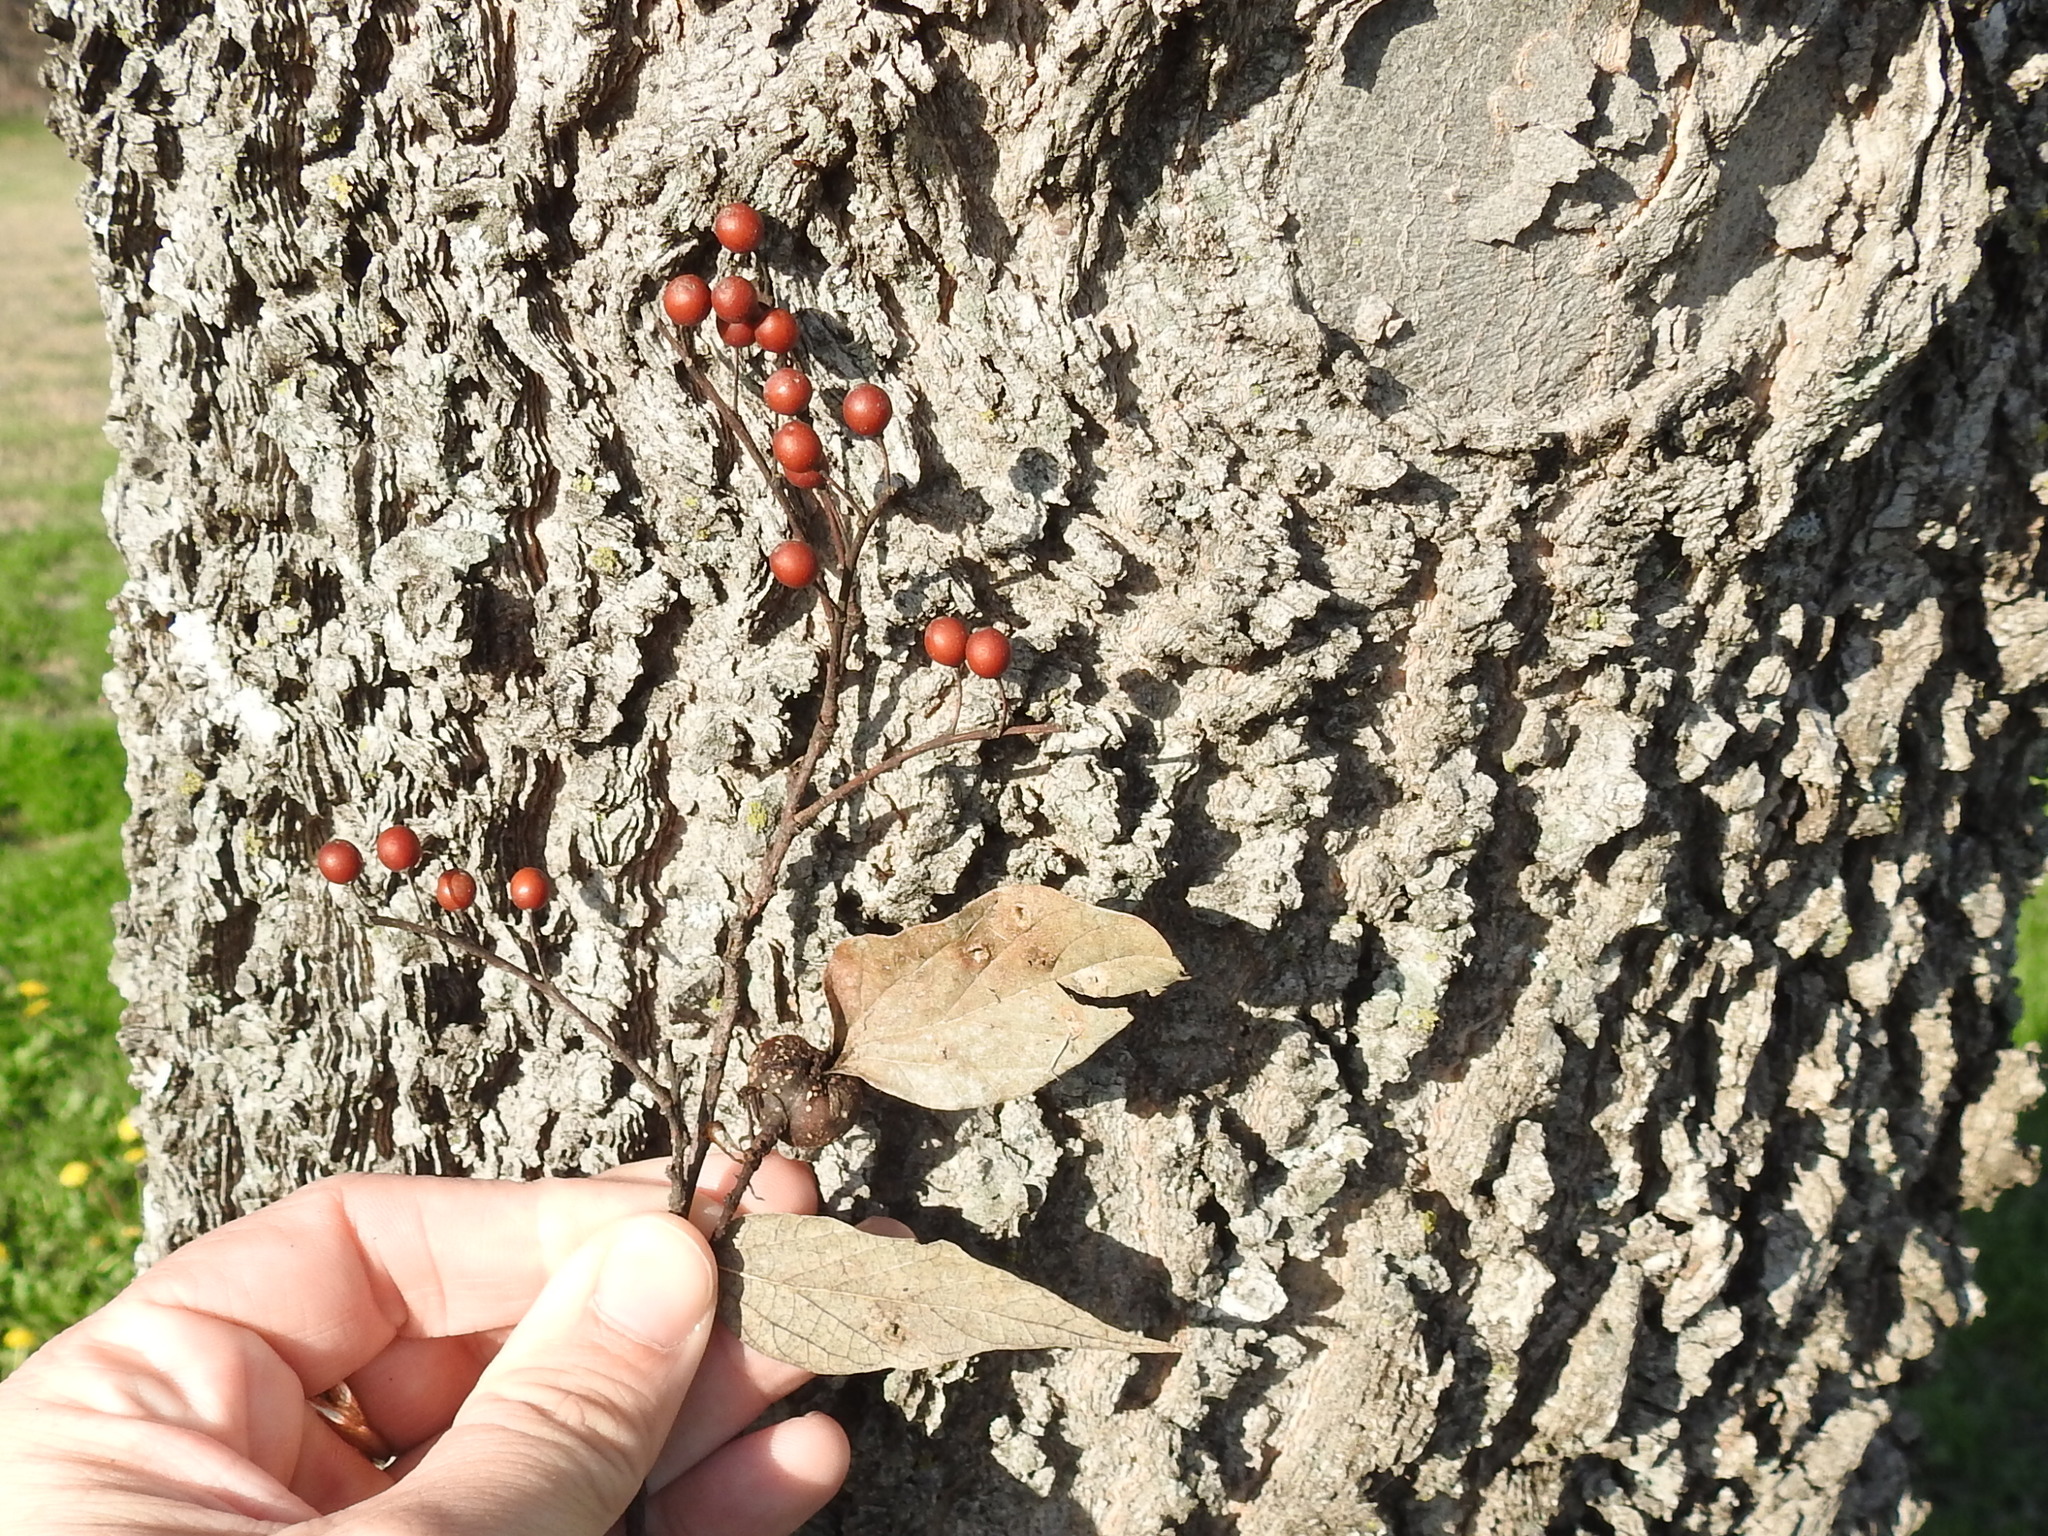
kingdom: Plantae
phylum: Tracheophyta
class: Magnoliopsida
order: Rosales
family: Cannabaceae
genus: Celtis
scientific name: Celtis laevigata
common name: Sugarberry
